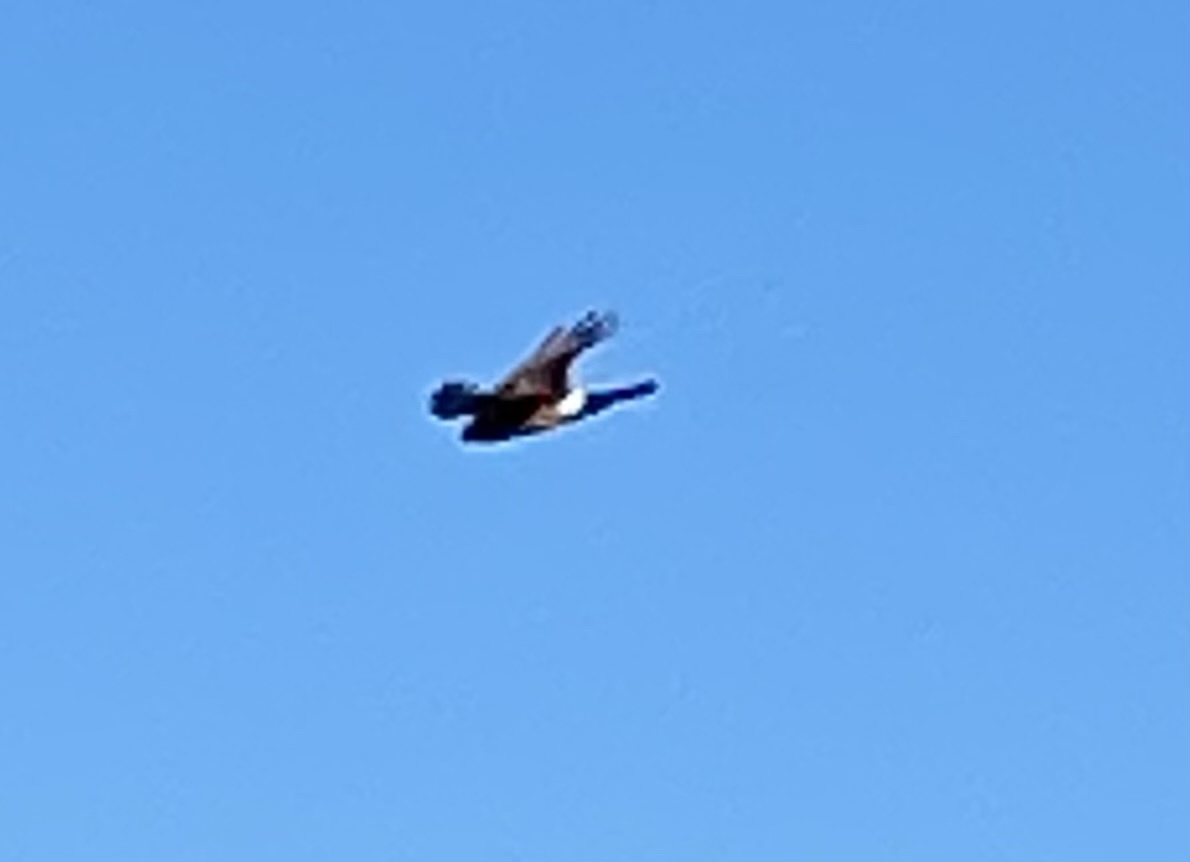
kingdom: Animalia
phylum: Chordata
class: Aves
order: Accipitriformes
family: Accipitridae
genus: Circus
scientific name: Circus cyaneus
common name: Hen harrier
